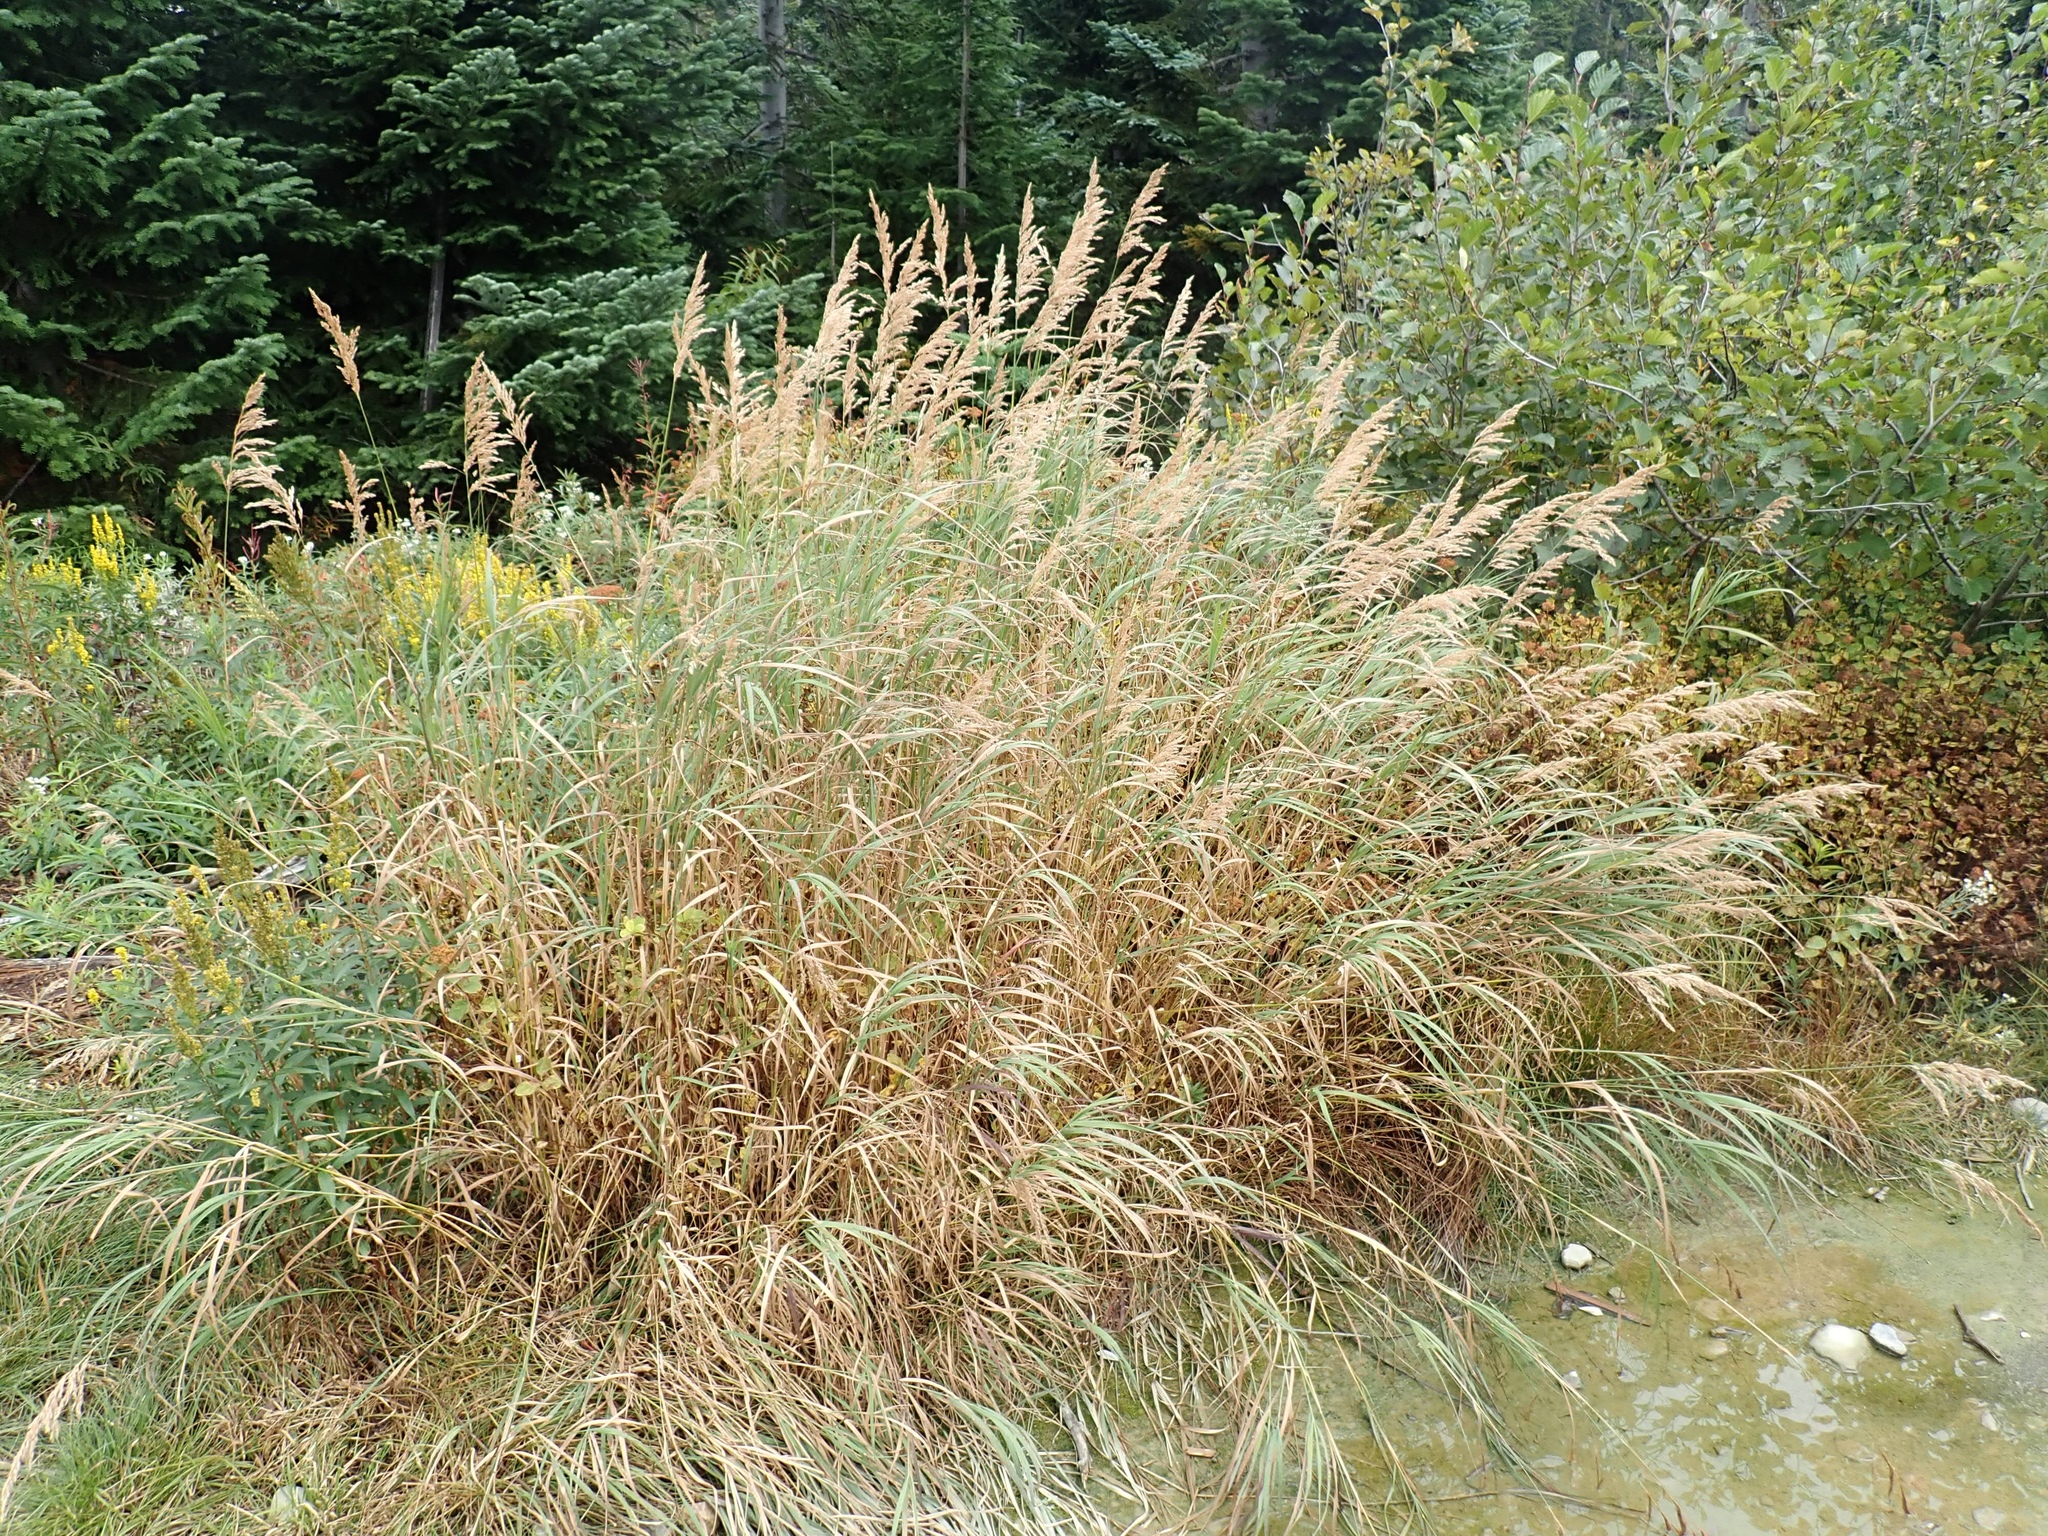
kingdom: Plantae
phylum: Tracheophyta
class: Liliopsida
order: Poales
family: Poaceae
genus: Calamagrostis
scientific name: Calamagrostis canadensis
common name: Canada bluejoint
